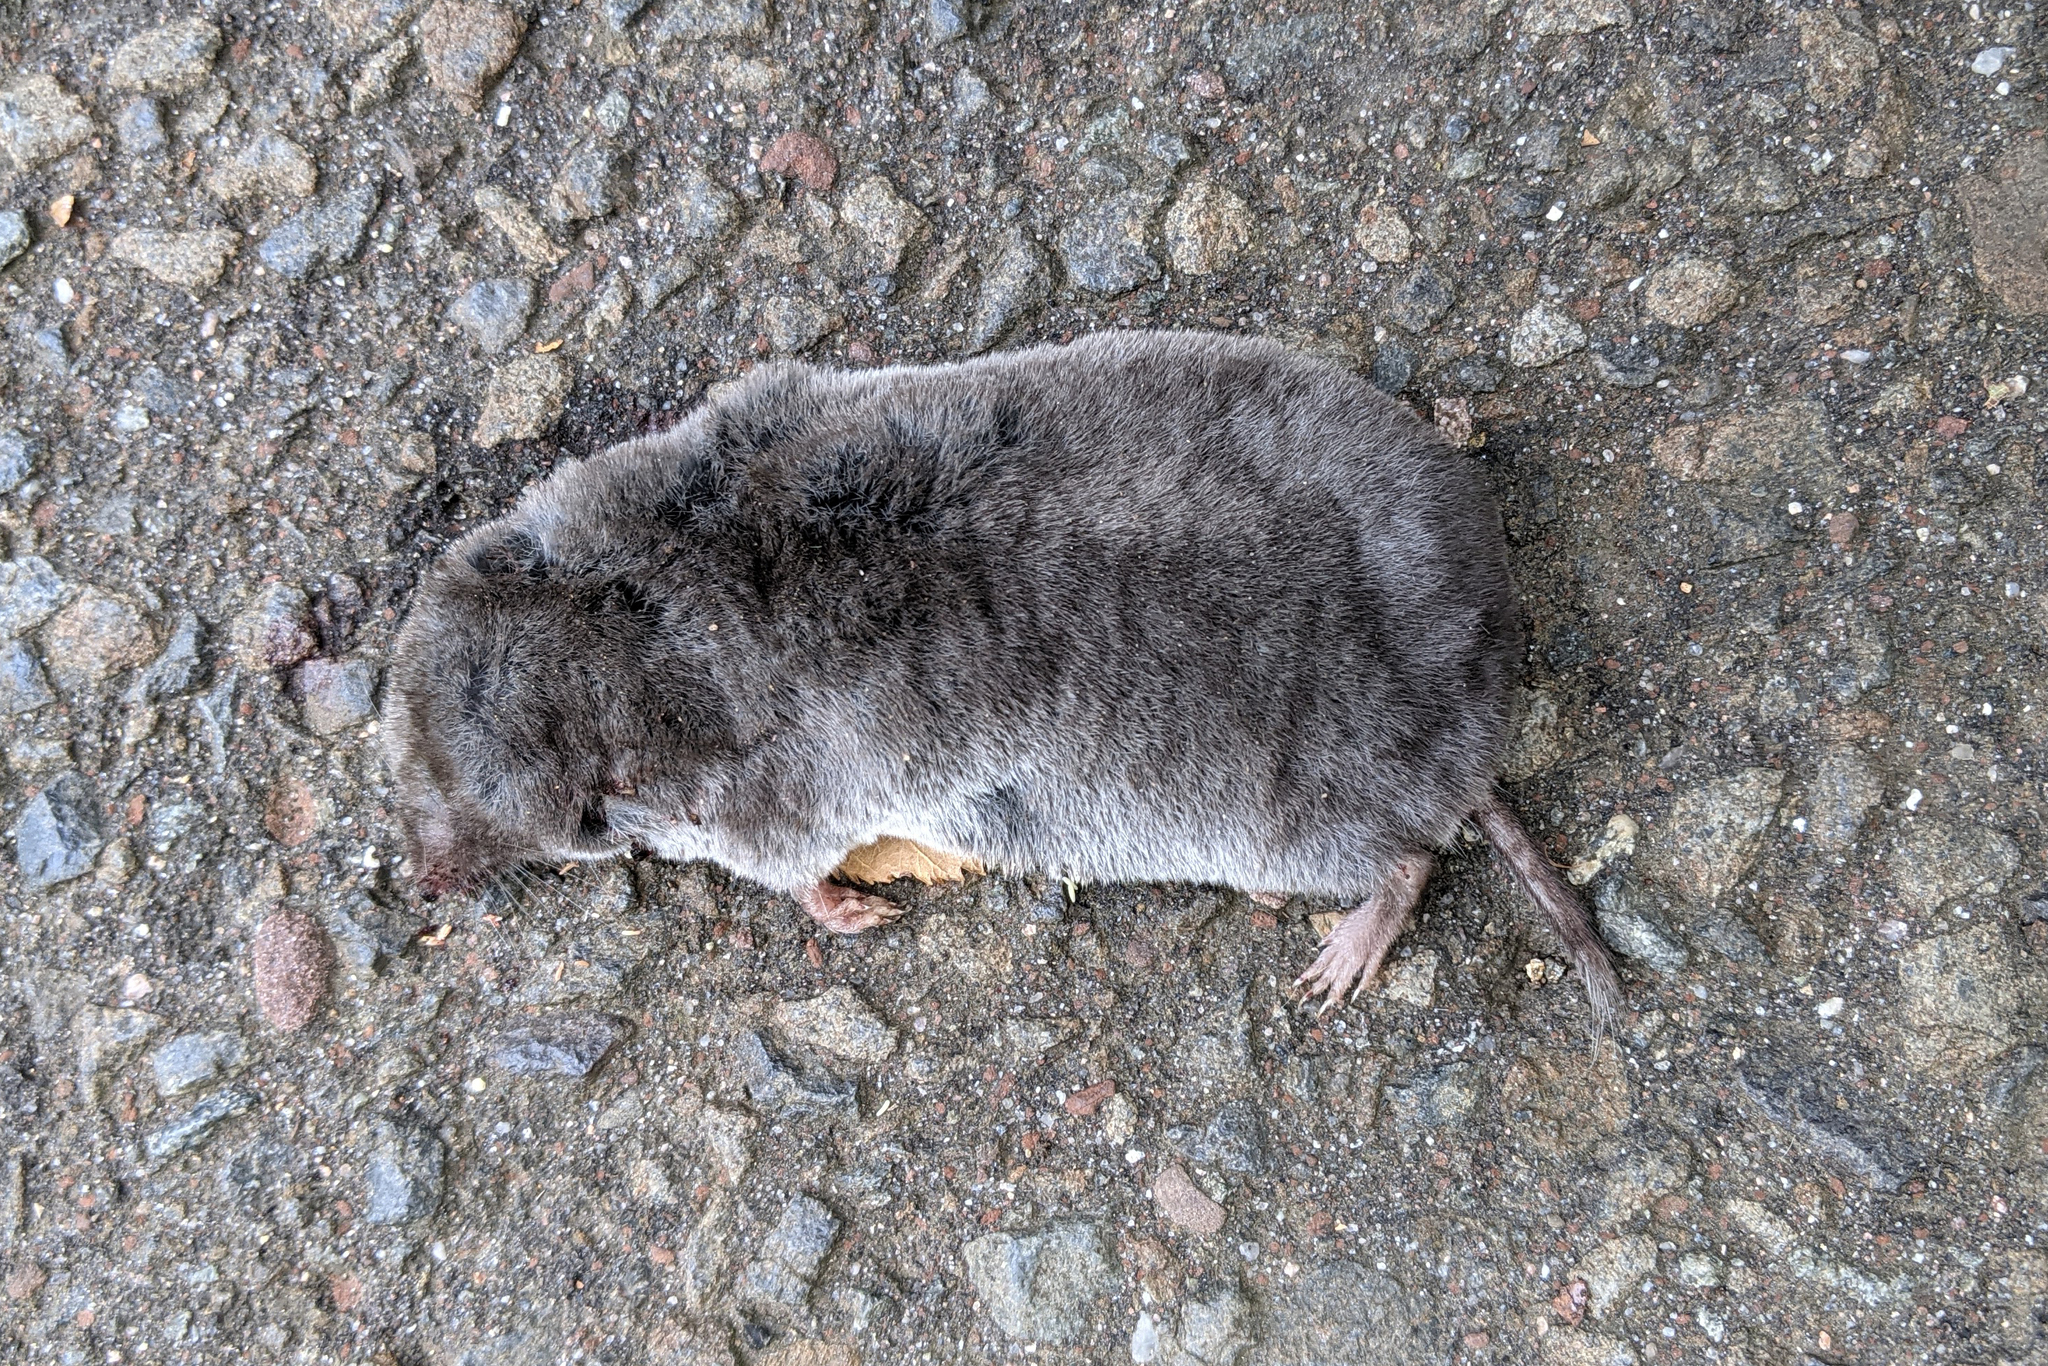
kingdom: Animalia
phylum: Chordata
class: Mammalia
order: Soricomorpha
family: Soricidae
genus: Blarina
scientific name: Blarina brevicauda
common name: Northern short-tailed shrew
